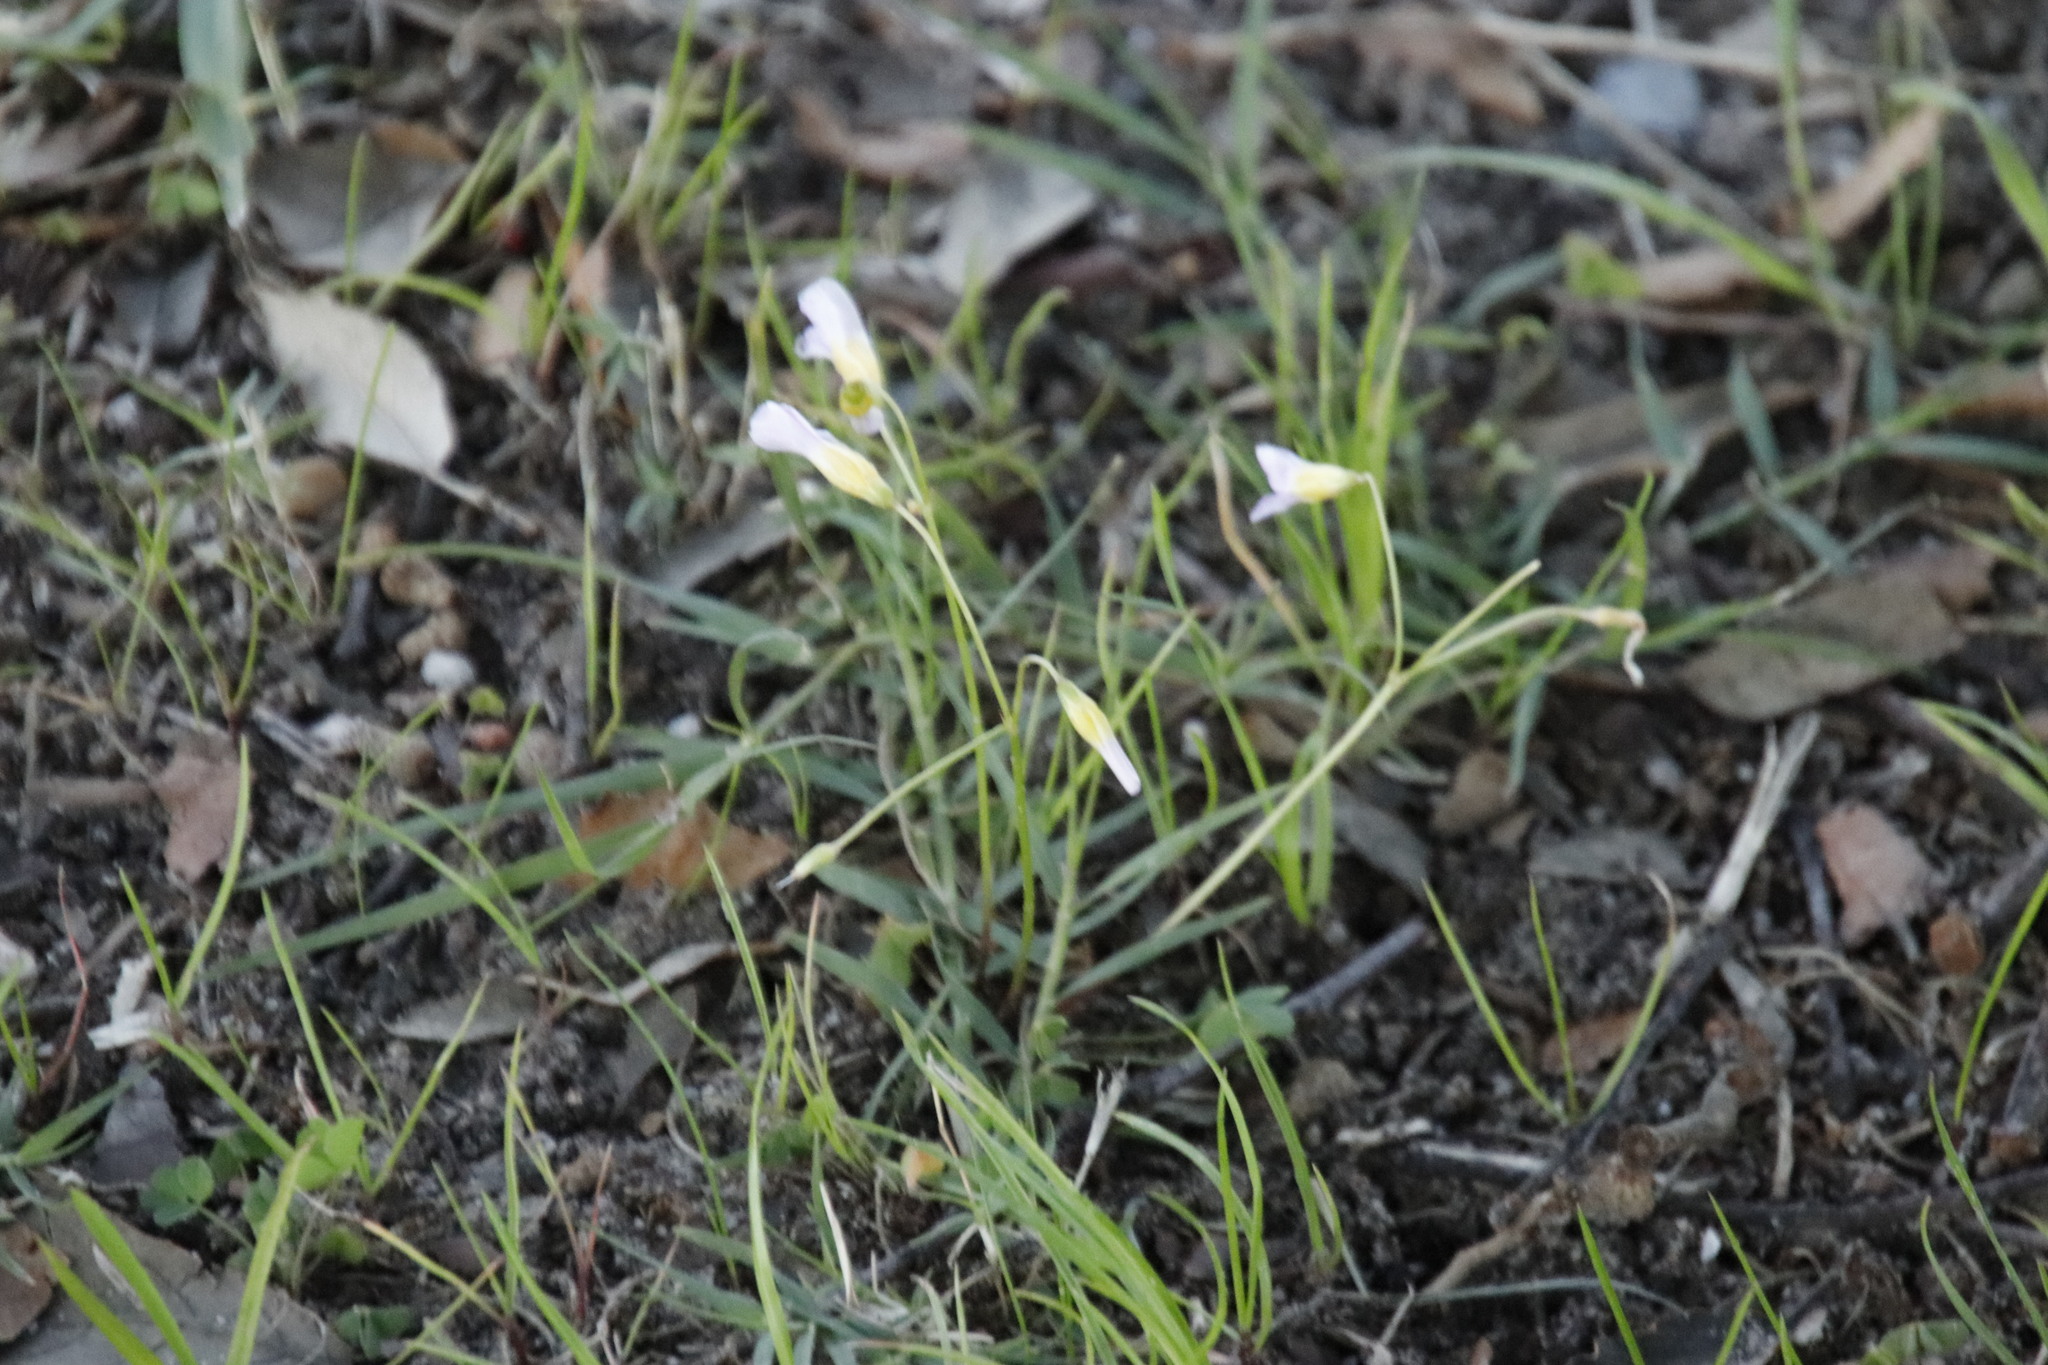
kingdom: Plantae
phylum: Tracheophyta
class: Magnoliopsida
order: Oxalidales
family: Oxalidaceae
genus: Oxalis
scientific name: Oxalis caprina
